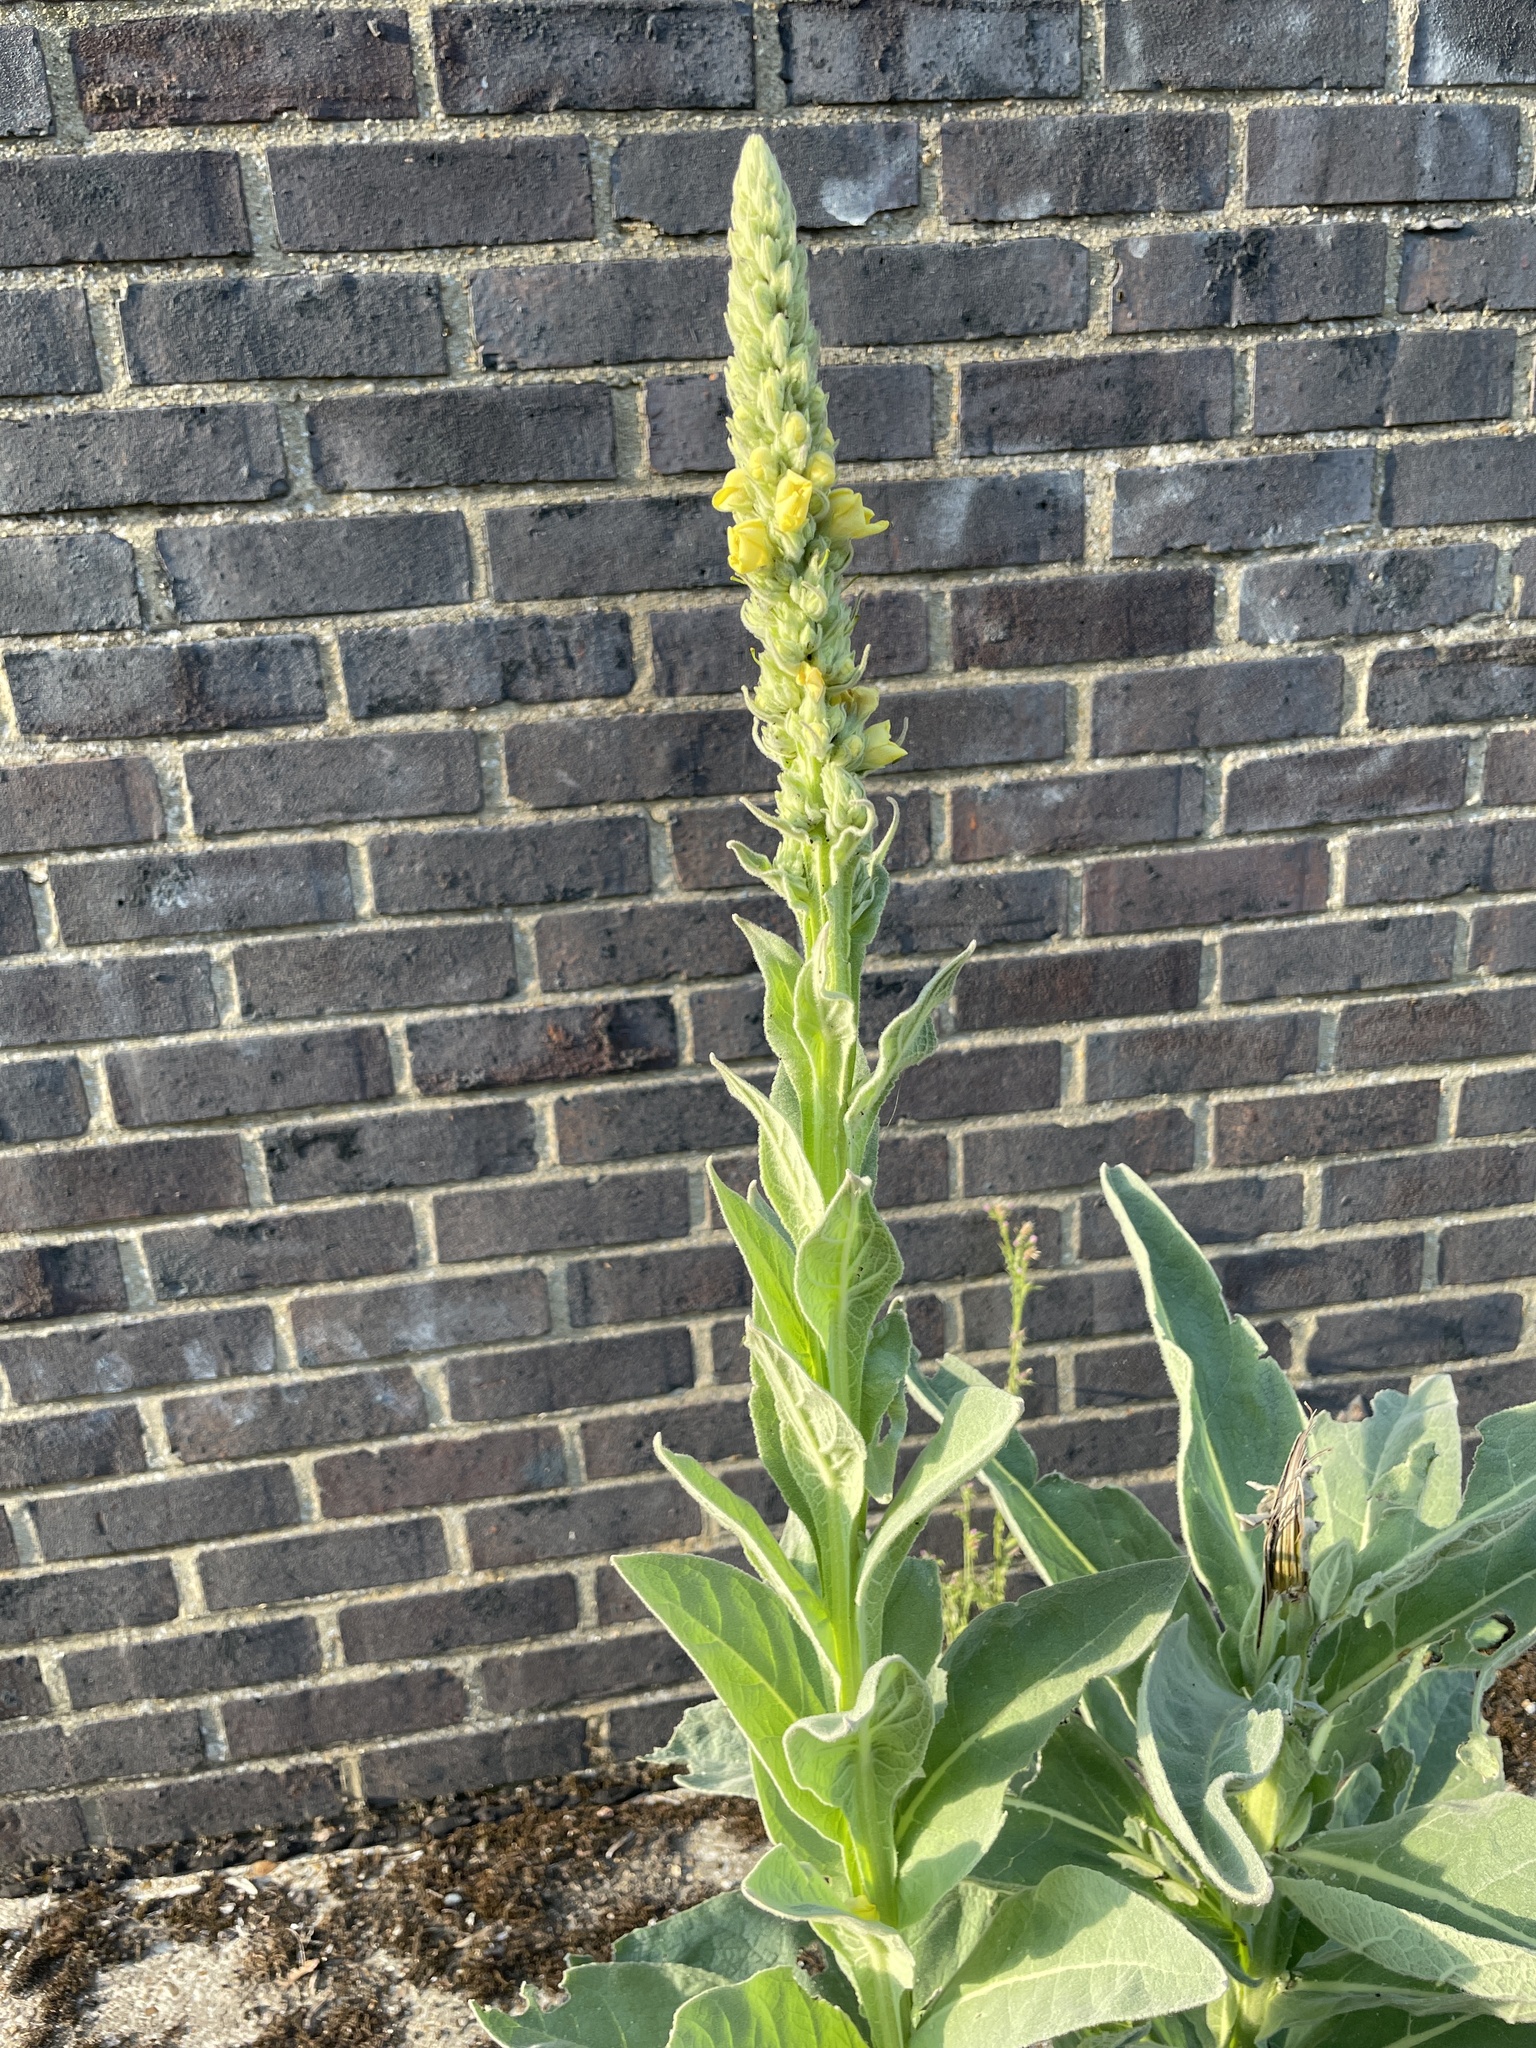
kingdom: Plantae
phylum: Tracheophyta
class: Magnoliopsida
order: Lamiales
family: Scrophulariaceae
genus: Verbascum
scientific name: Verbascum thapsus
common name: Common mullein
